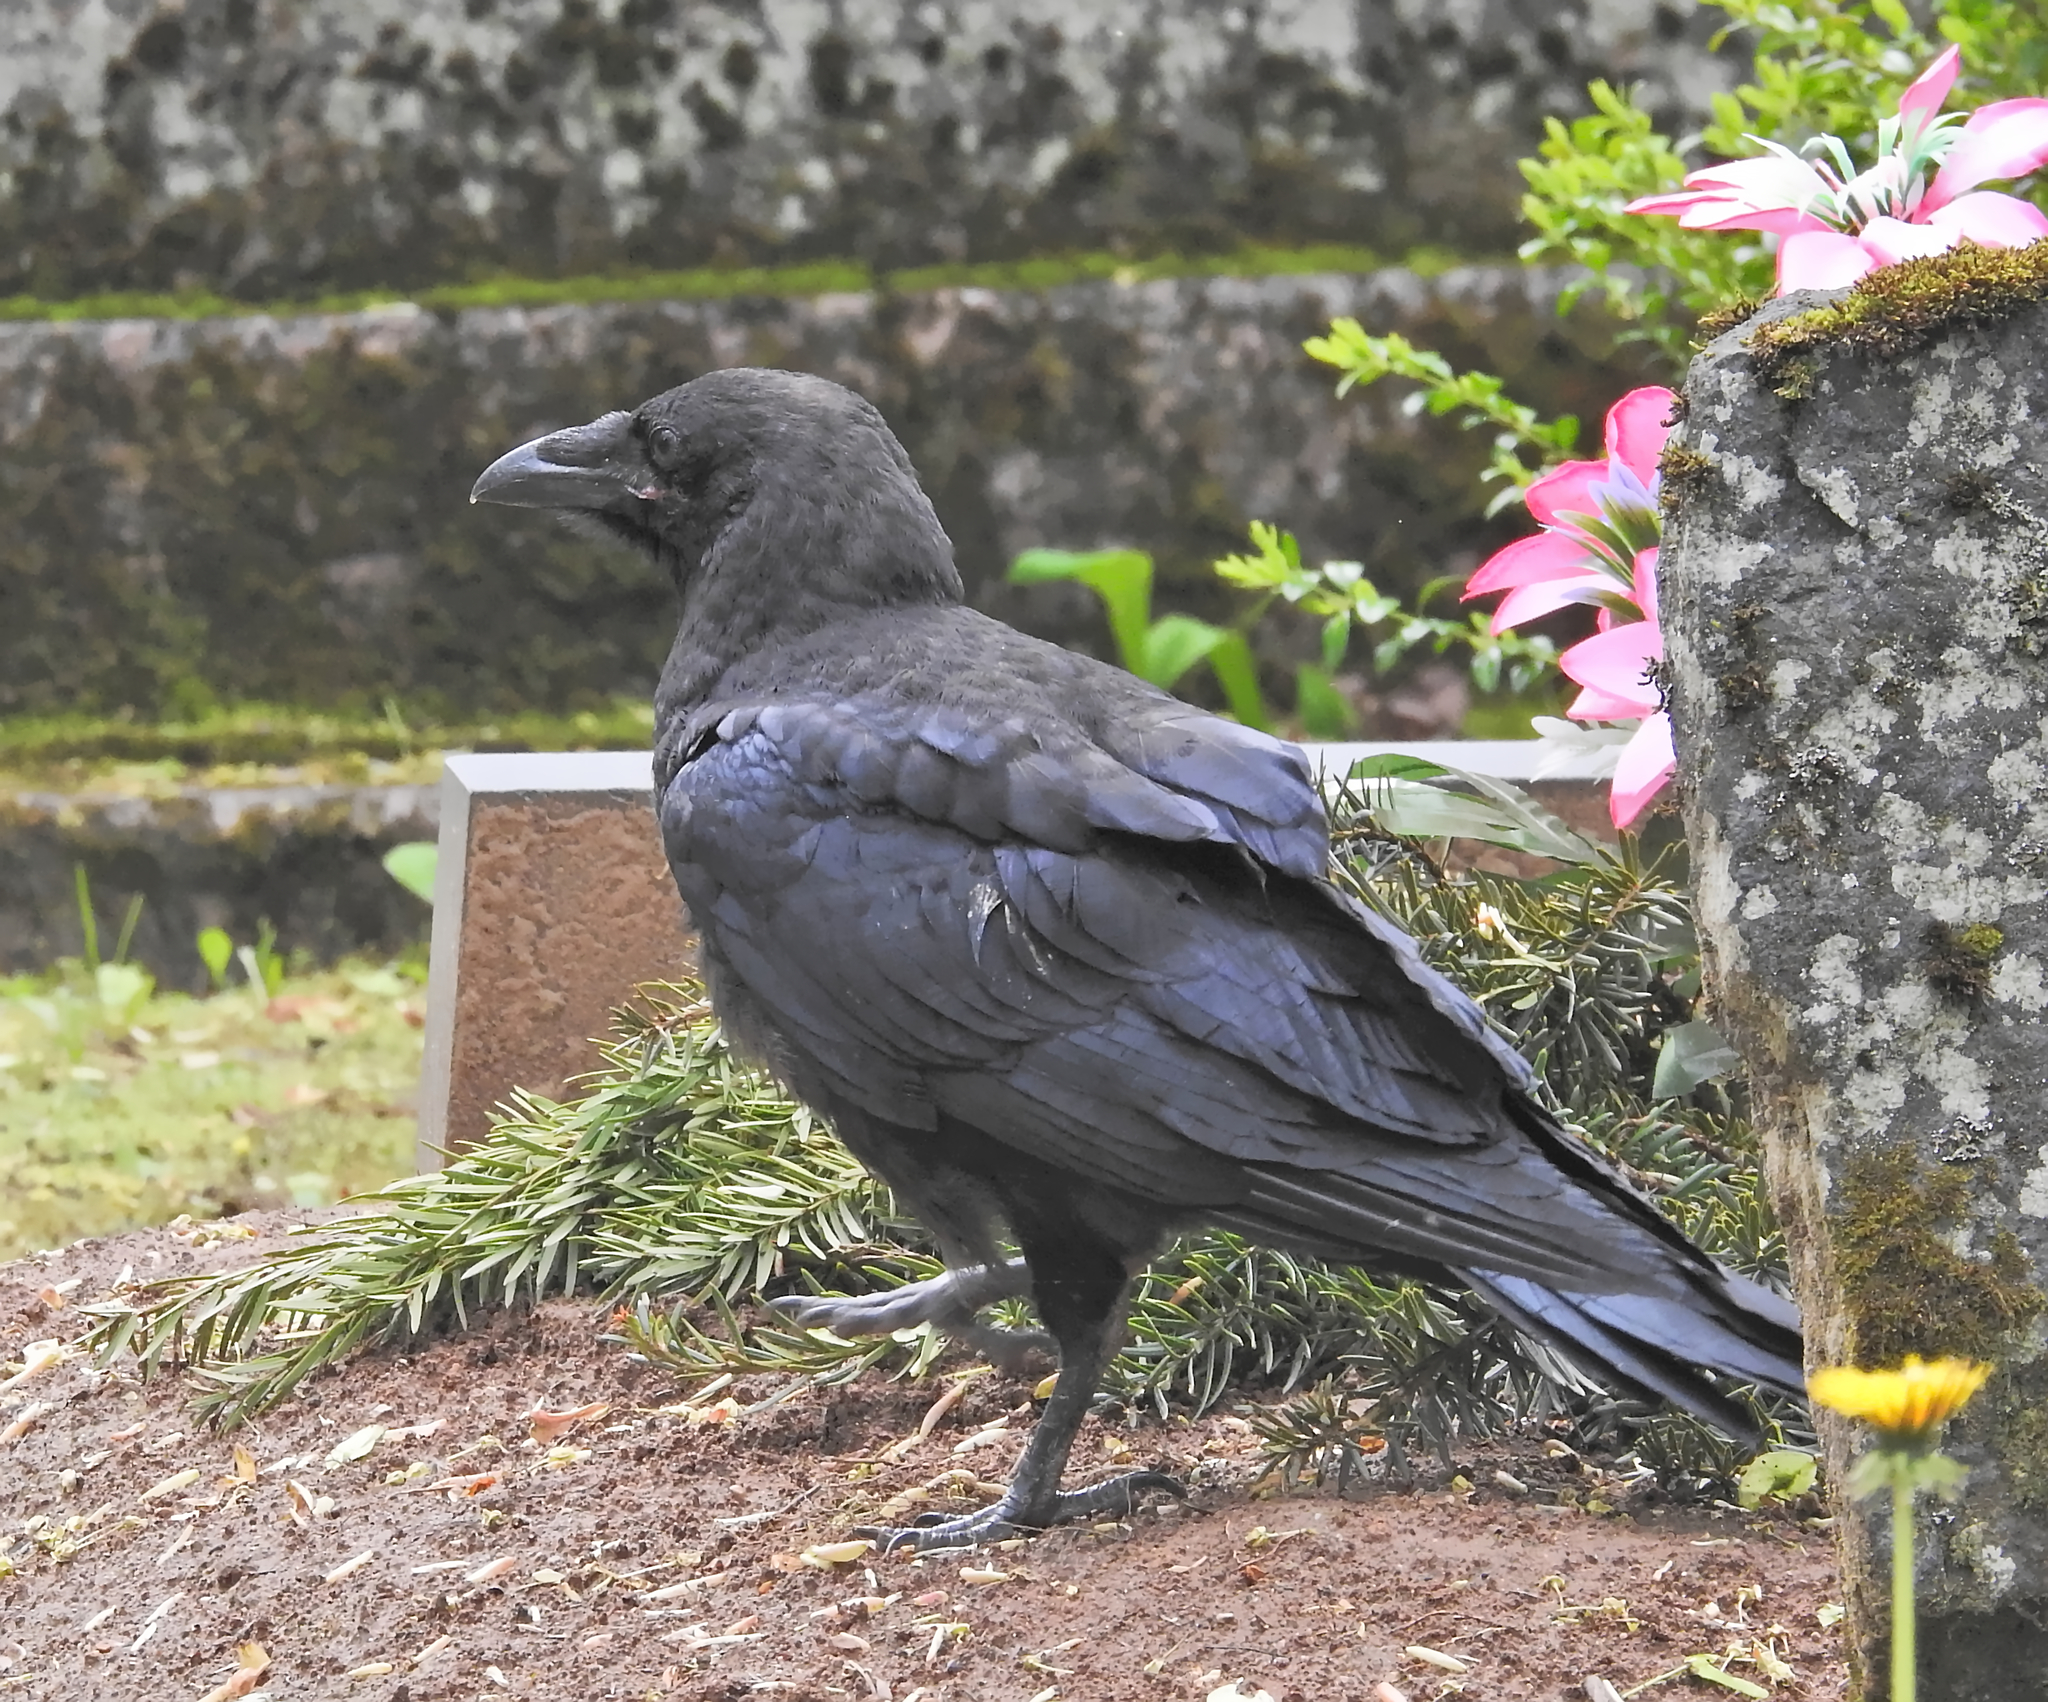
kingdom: Animalia
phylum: Chordata
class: Aves
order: Passeriformes
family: Corvidae
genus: Corvus
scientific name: Corvus corax
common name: Common raven
